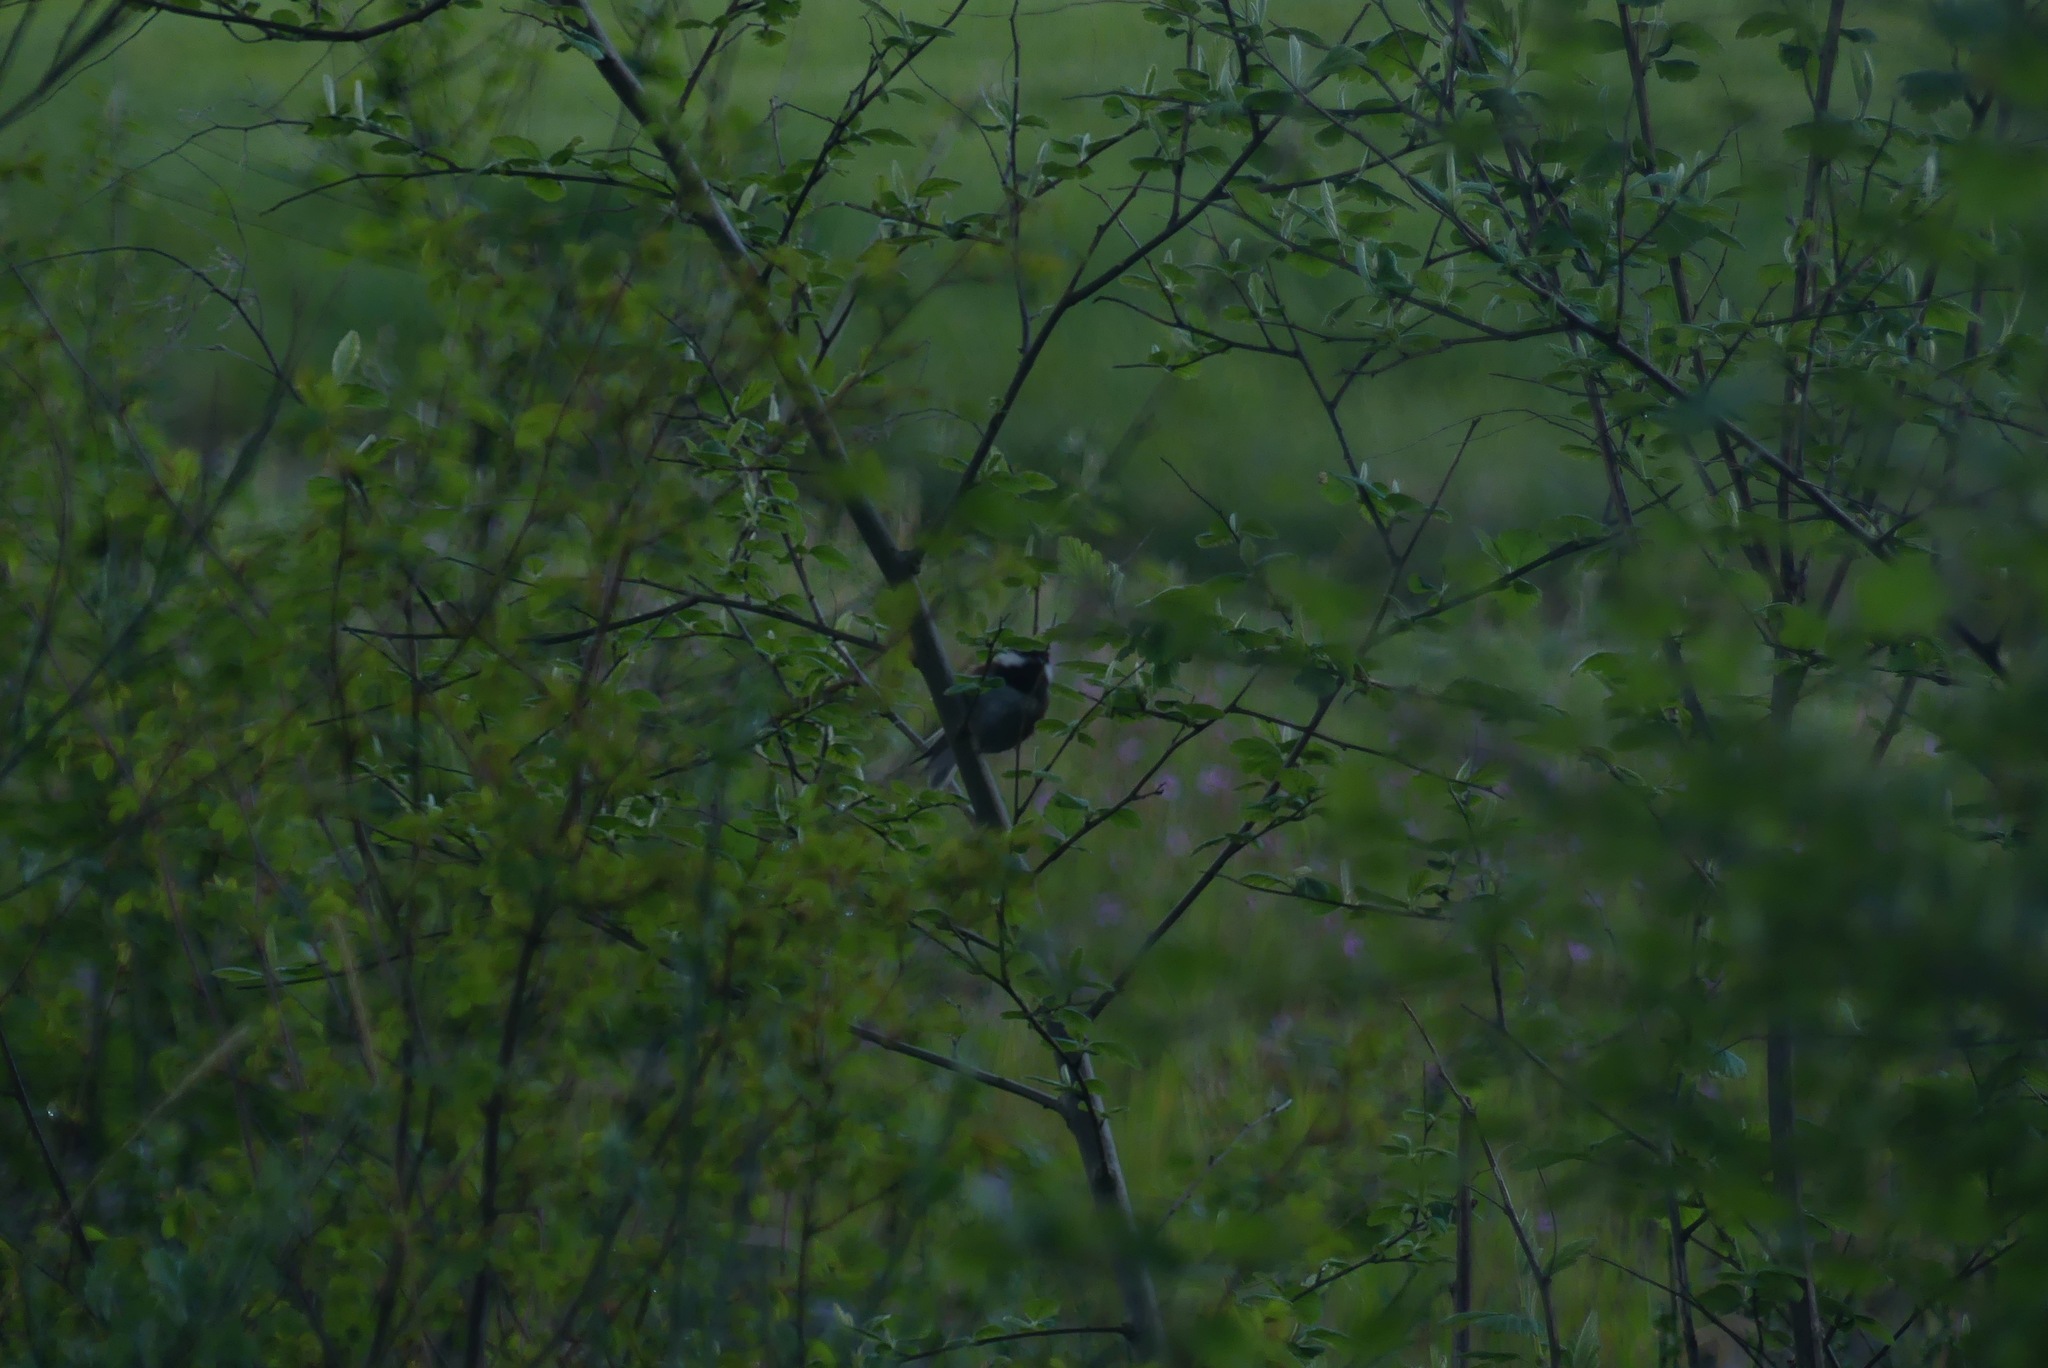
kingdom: Animalia
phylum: Chordata
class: Aves
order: Passeriformes
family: Paridae
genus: Poecile
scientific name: Poecile rufescens
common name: Chestnut-backed chickadee
